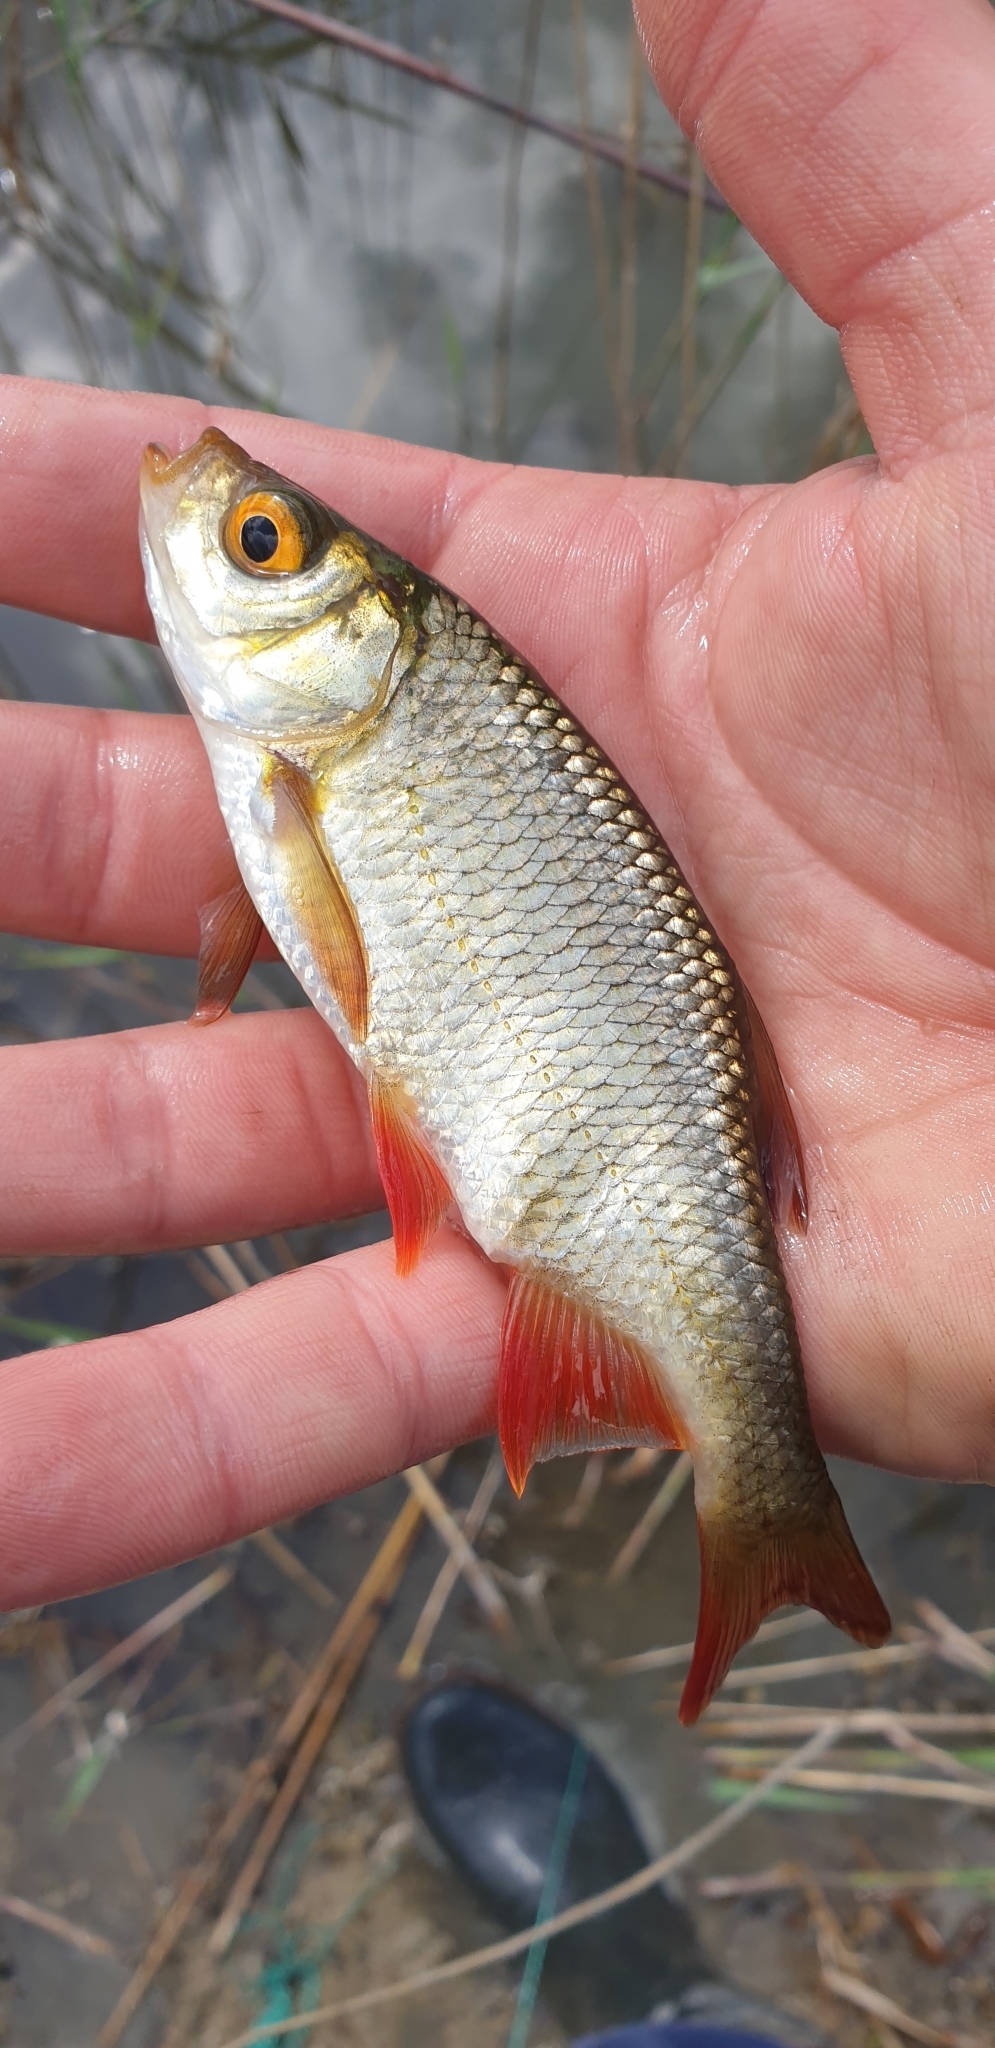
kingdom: Animalia
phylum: Chordata
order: Cypriniformes
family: Cyprinidae
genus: Scardinius
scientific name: Scardinius erythrophthalmus
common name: Rudd
